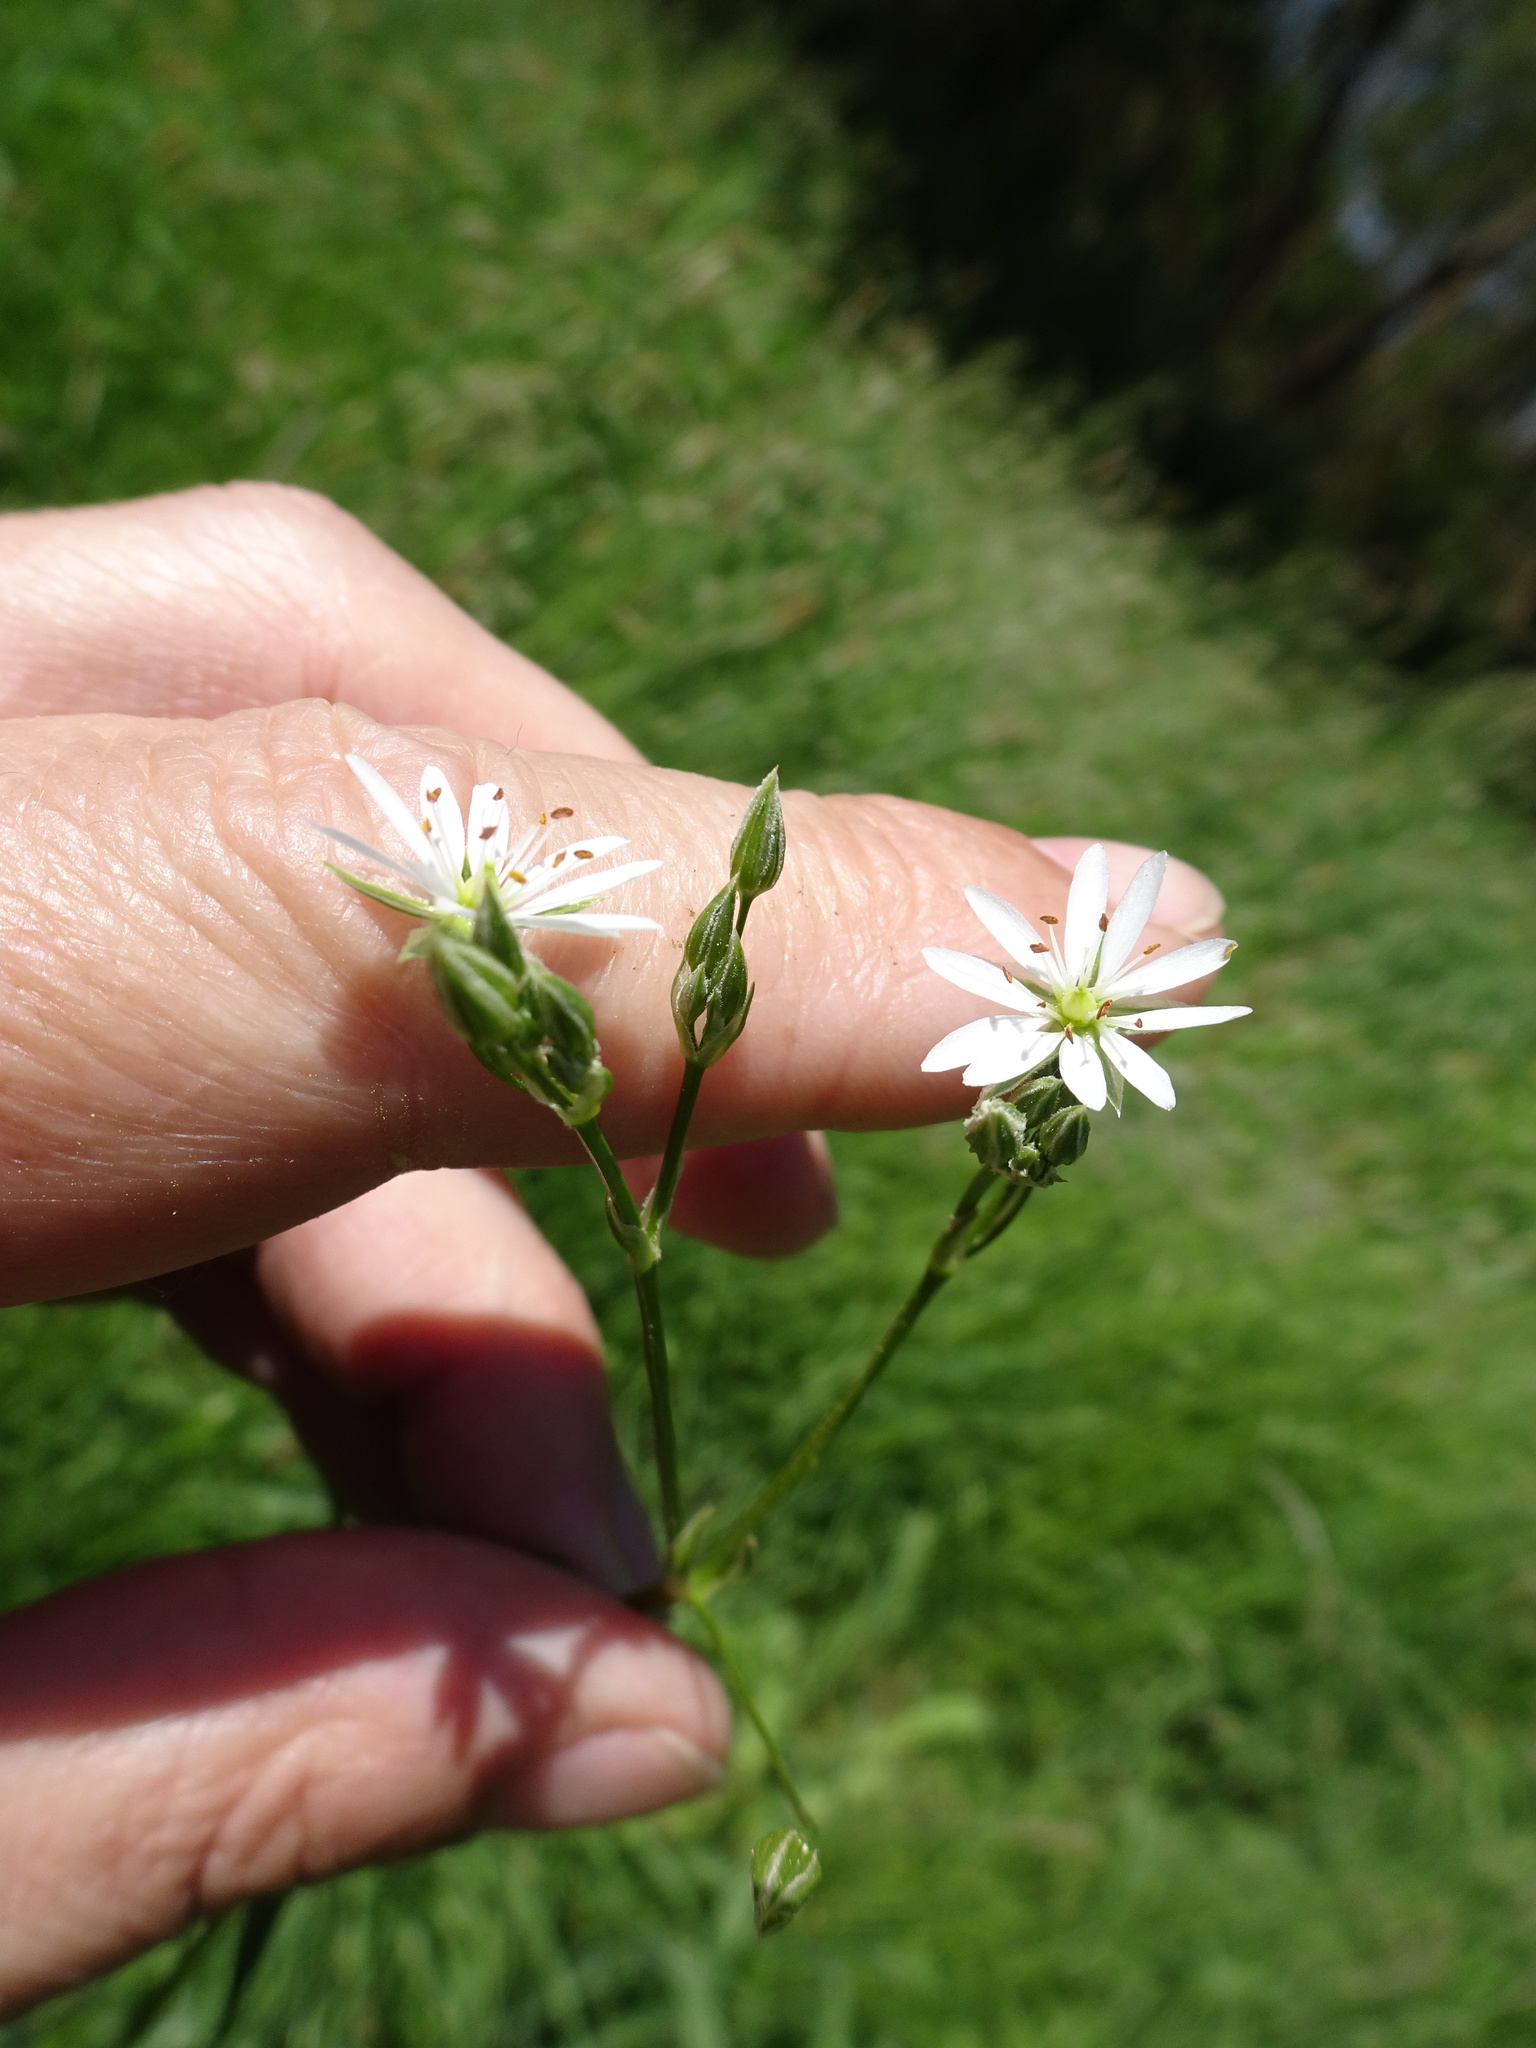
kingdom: Plantae
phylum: Tracheophyta
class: Magnoliopsida
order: Caryophyllales
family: Caryophyllaceae
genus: Stellaria
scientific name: Stellaria graminea
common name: Grass-like starwort
